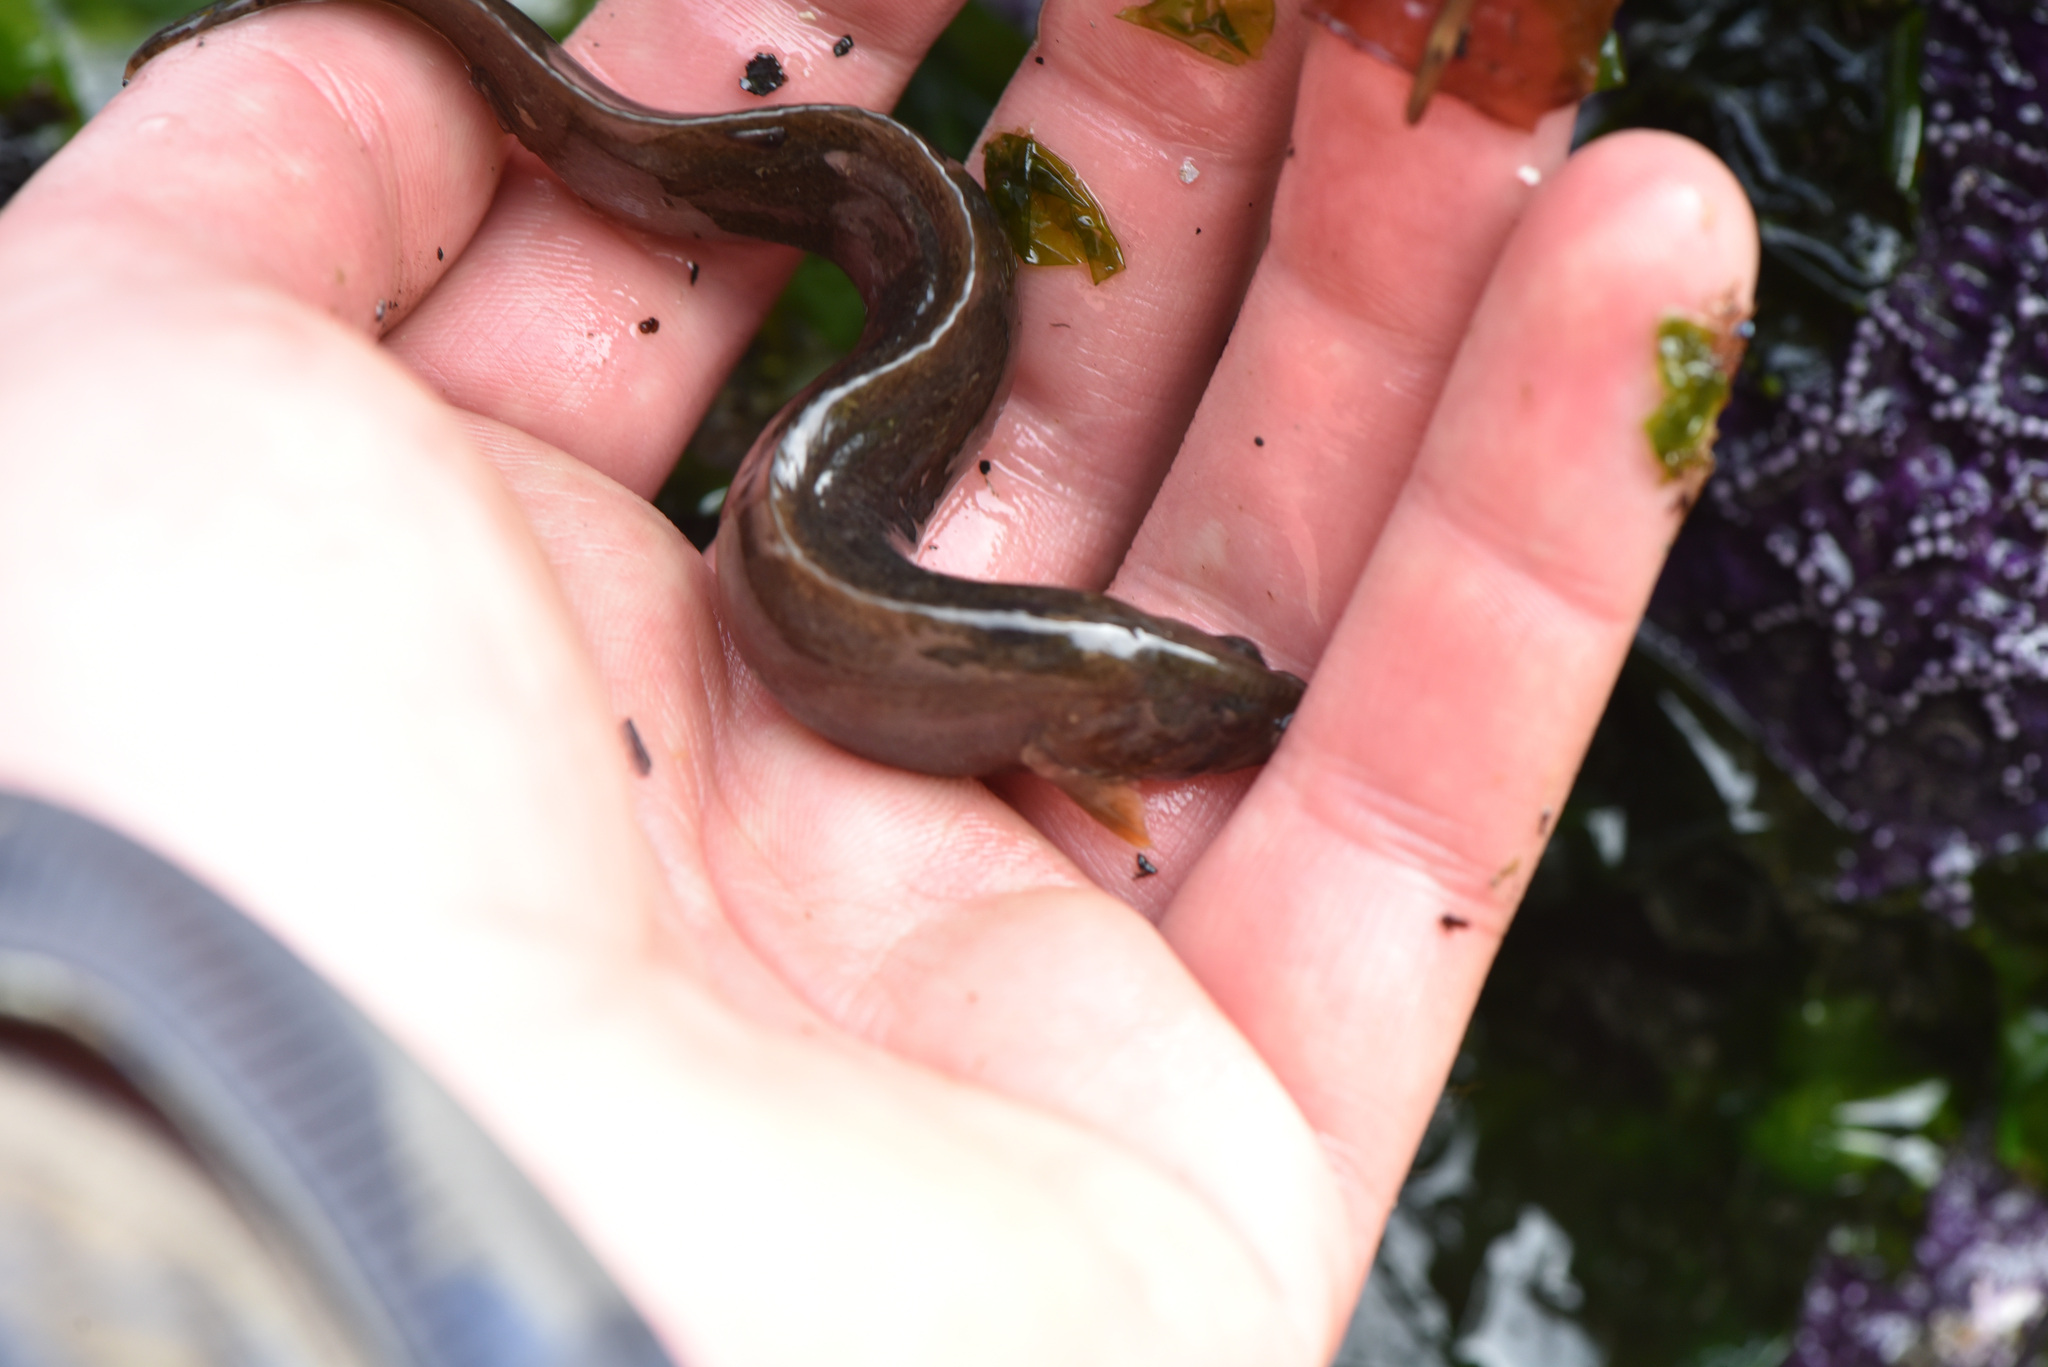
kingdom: Animalia
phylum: Chordata
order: Perciformes
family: Stichaeidae
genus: Anoplarchus
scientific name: Anoplarchus purpurescens
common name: High cockscomb
